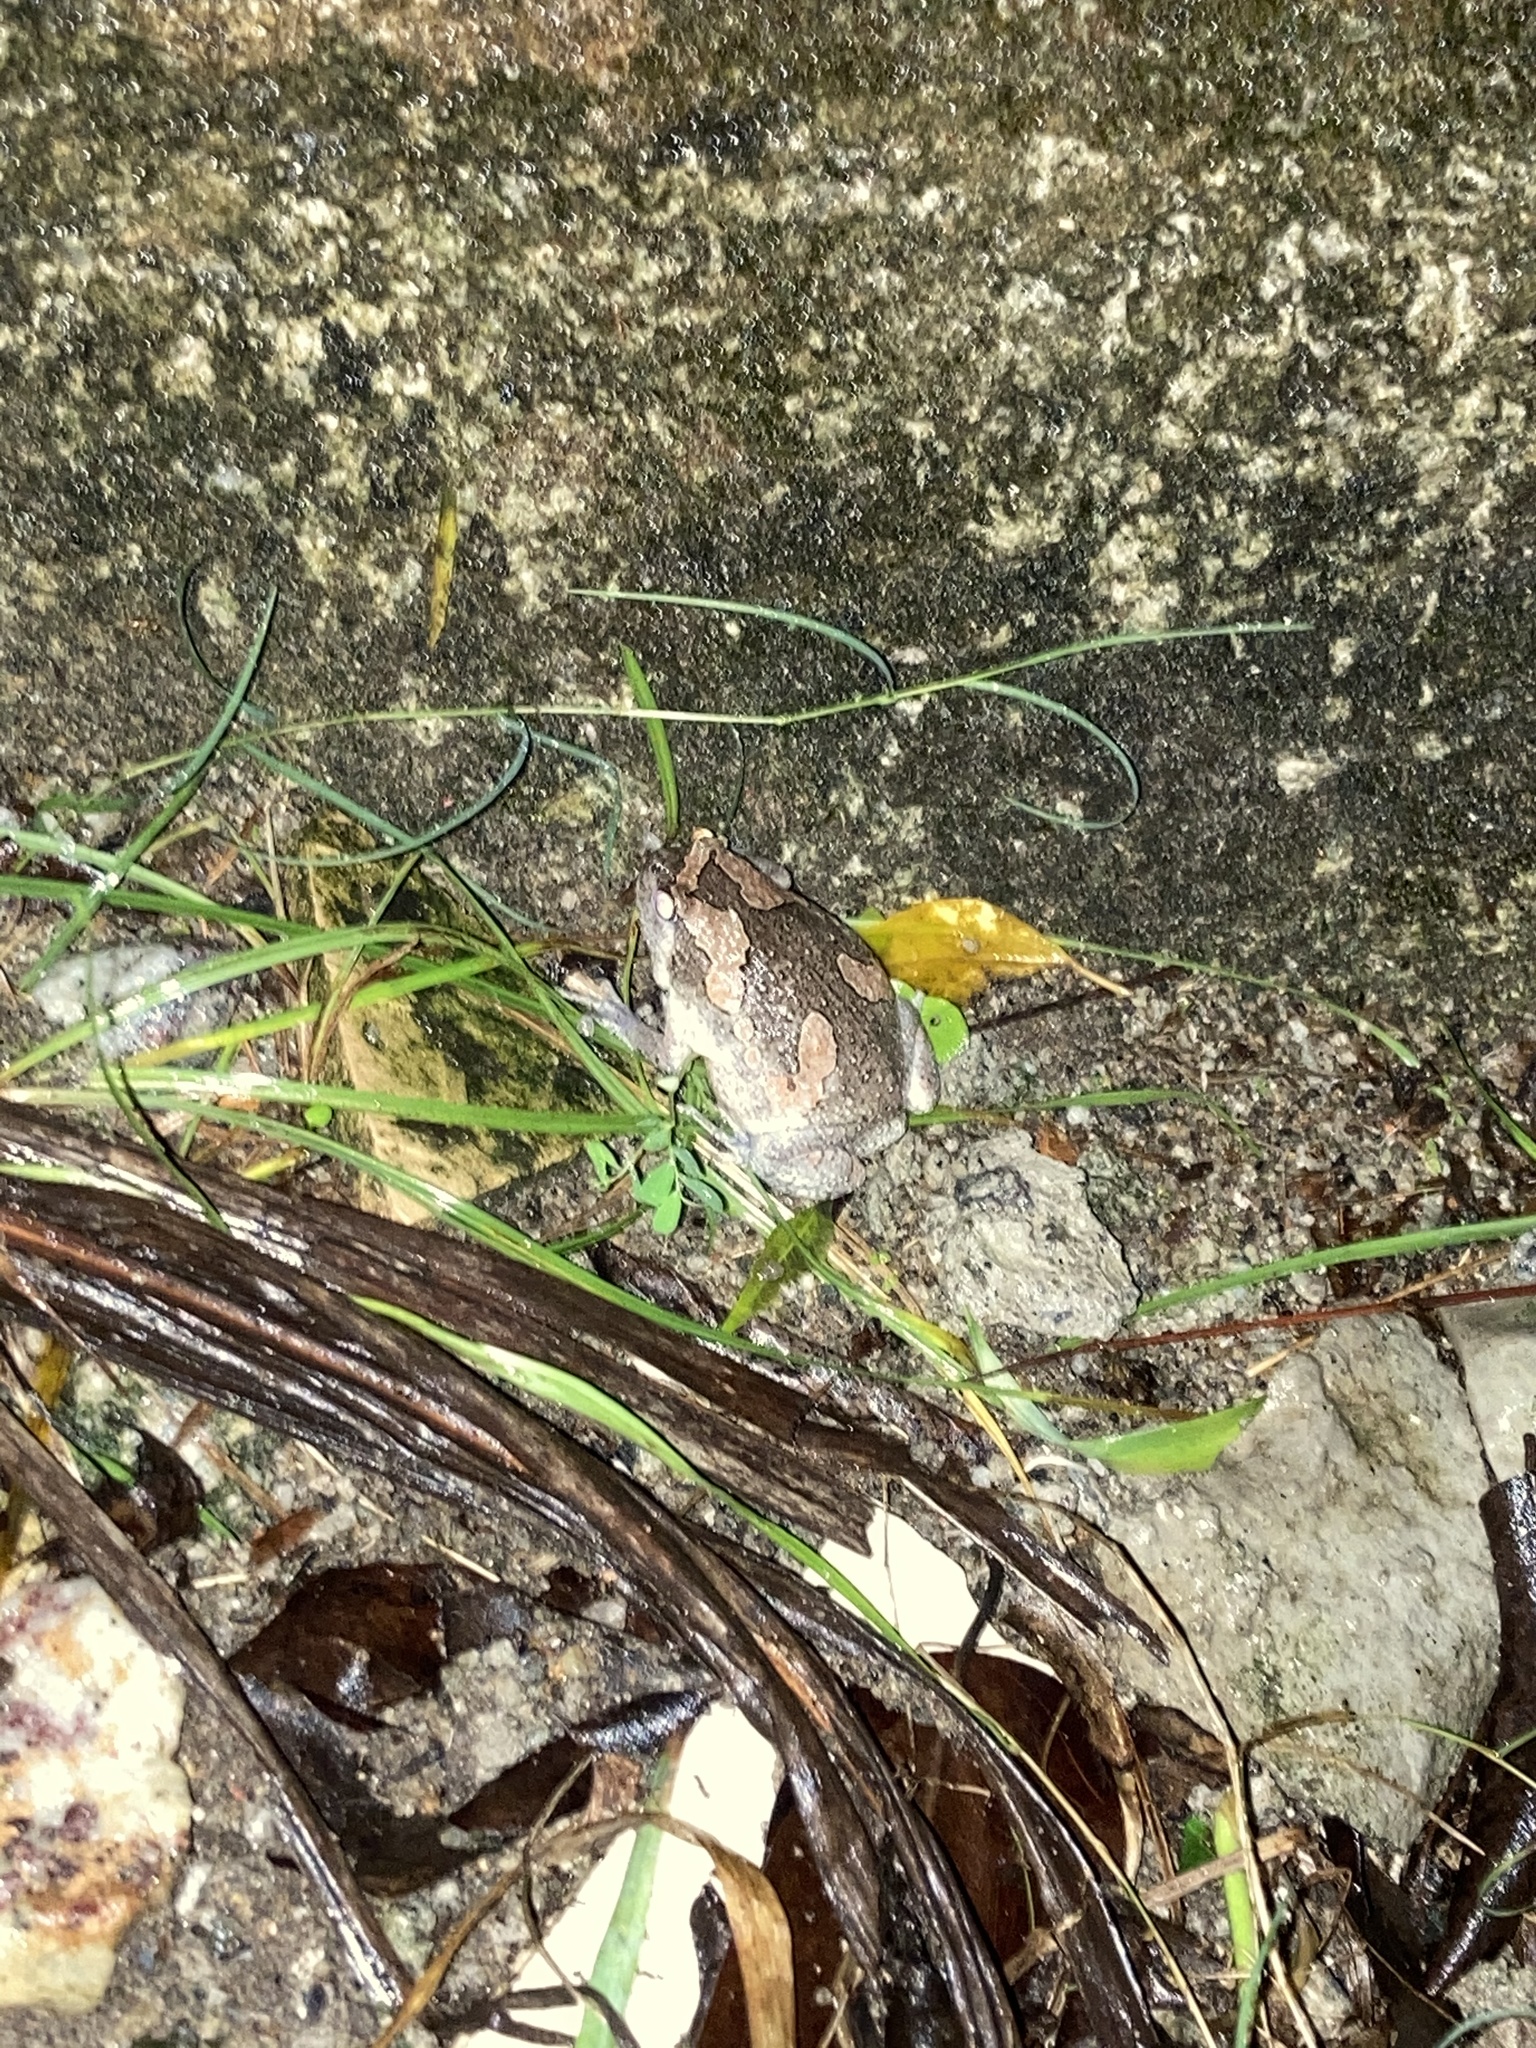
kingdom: Animalia
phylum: Chordata
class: Amphibia
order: Anura
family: Microhylidae
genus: Uperodon
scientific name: Uperodon taprobanicus
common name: Ceylon kaloula
